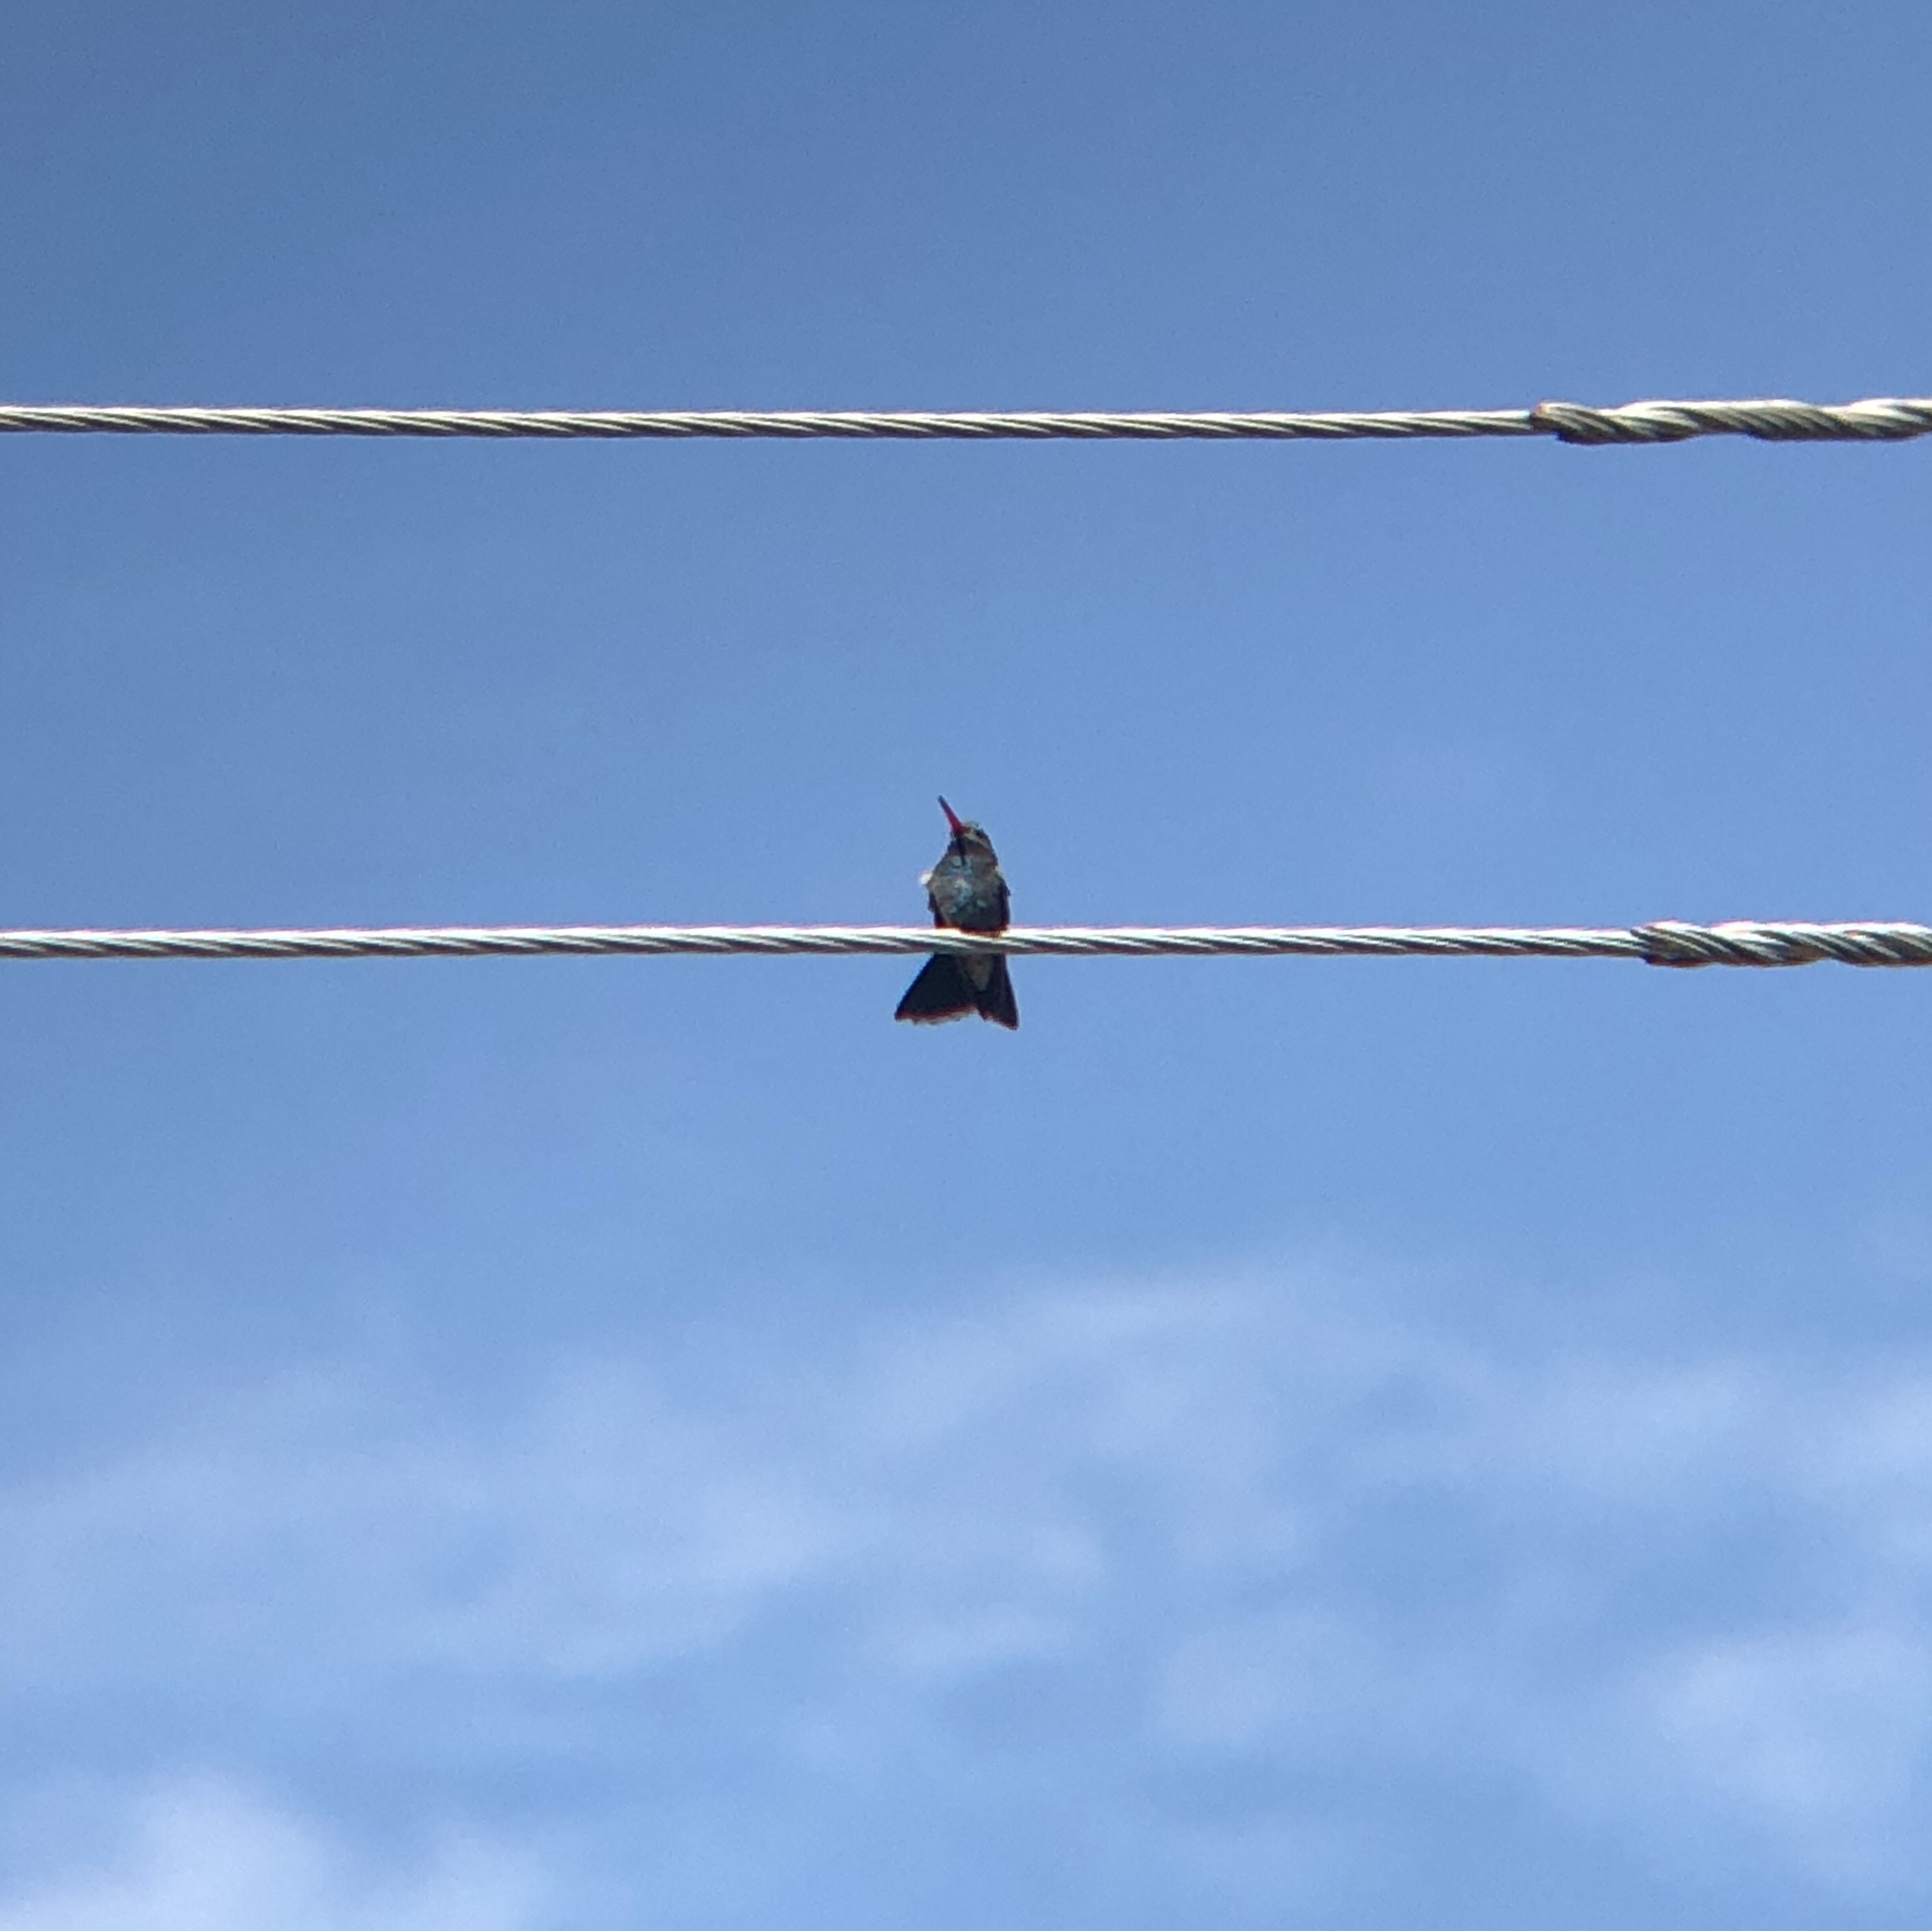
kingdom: Animalia
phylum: Chordata
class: Aves
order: Apodiformes
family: Trochilidae
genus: Cynanthus
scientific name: Cynanthus latirostris
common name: Broad-billed hummingbird
